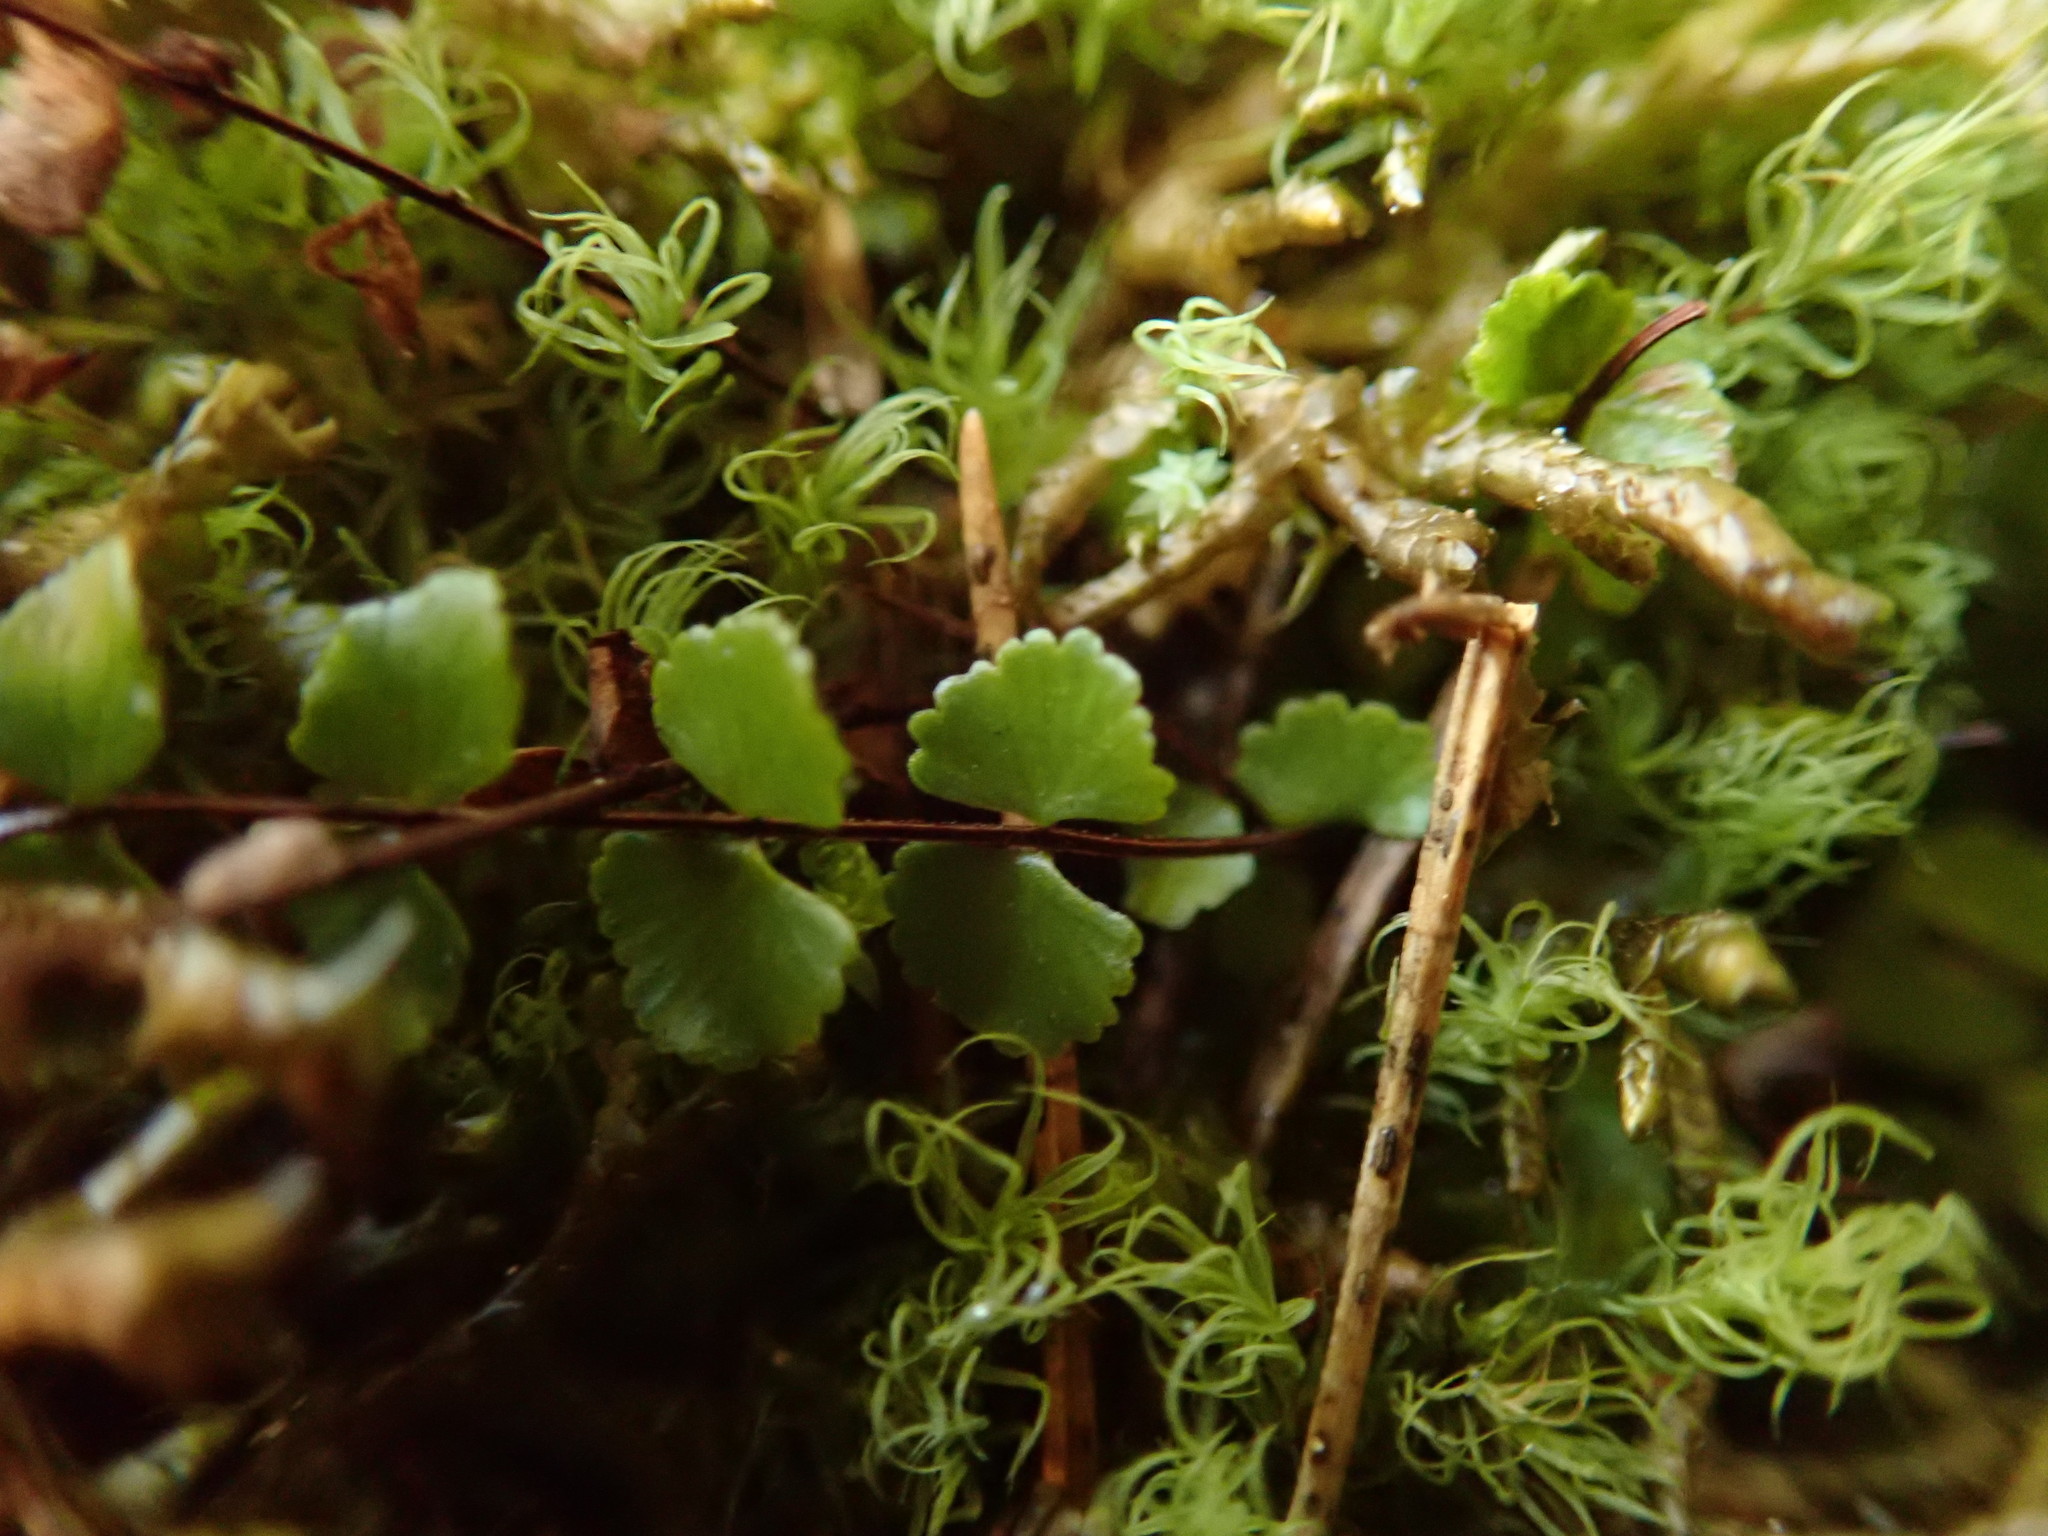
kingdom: Plantae
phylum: Tracheophyta
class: Polypodiopsida
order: Polypodiales
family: Aspleniaceae
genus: Asplenium
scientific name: Asplenium trichomanes
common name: Maidenhair spleenwort
